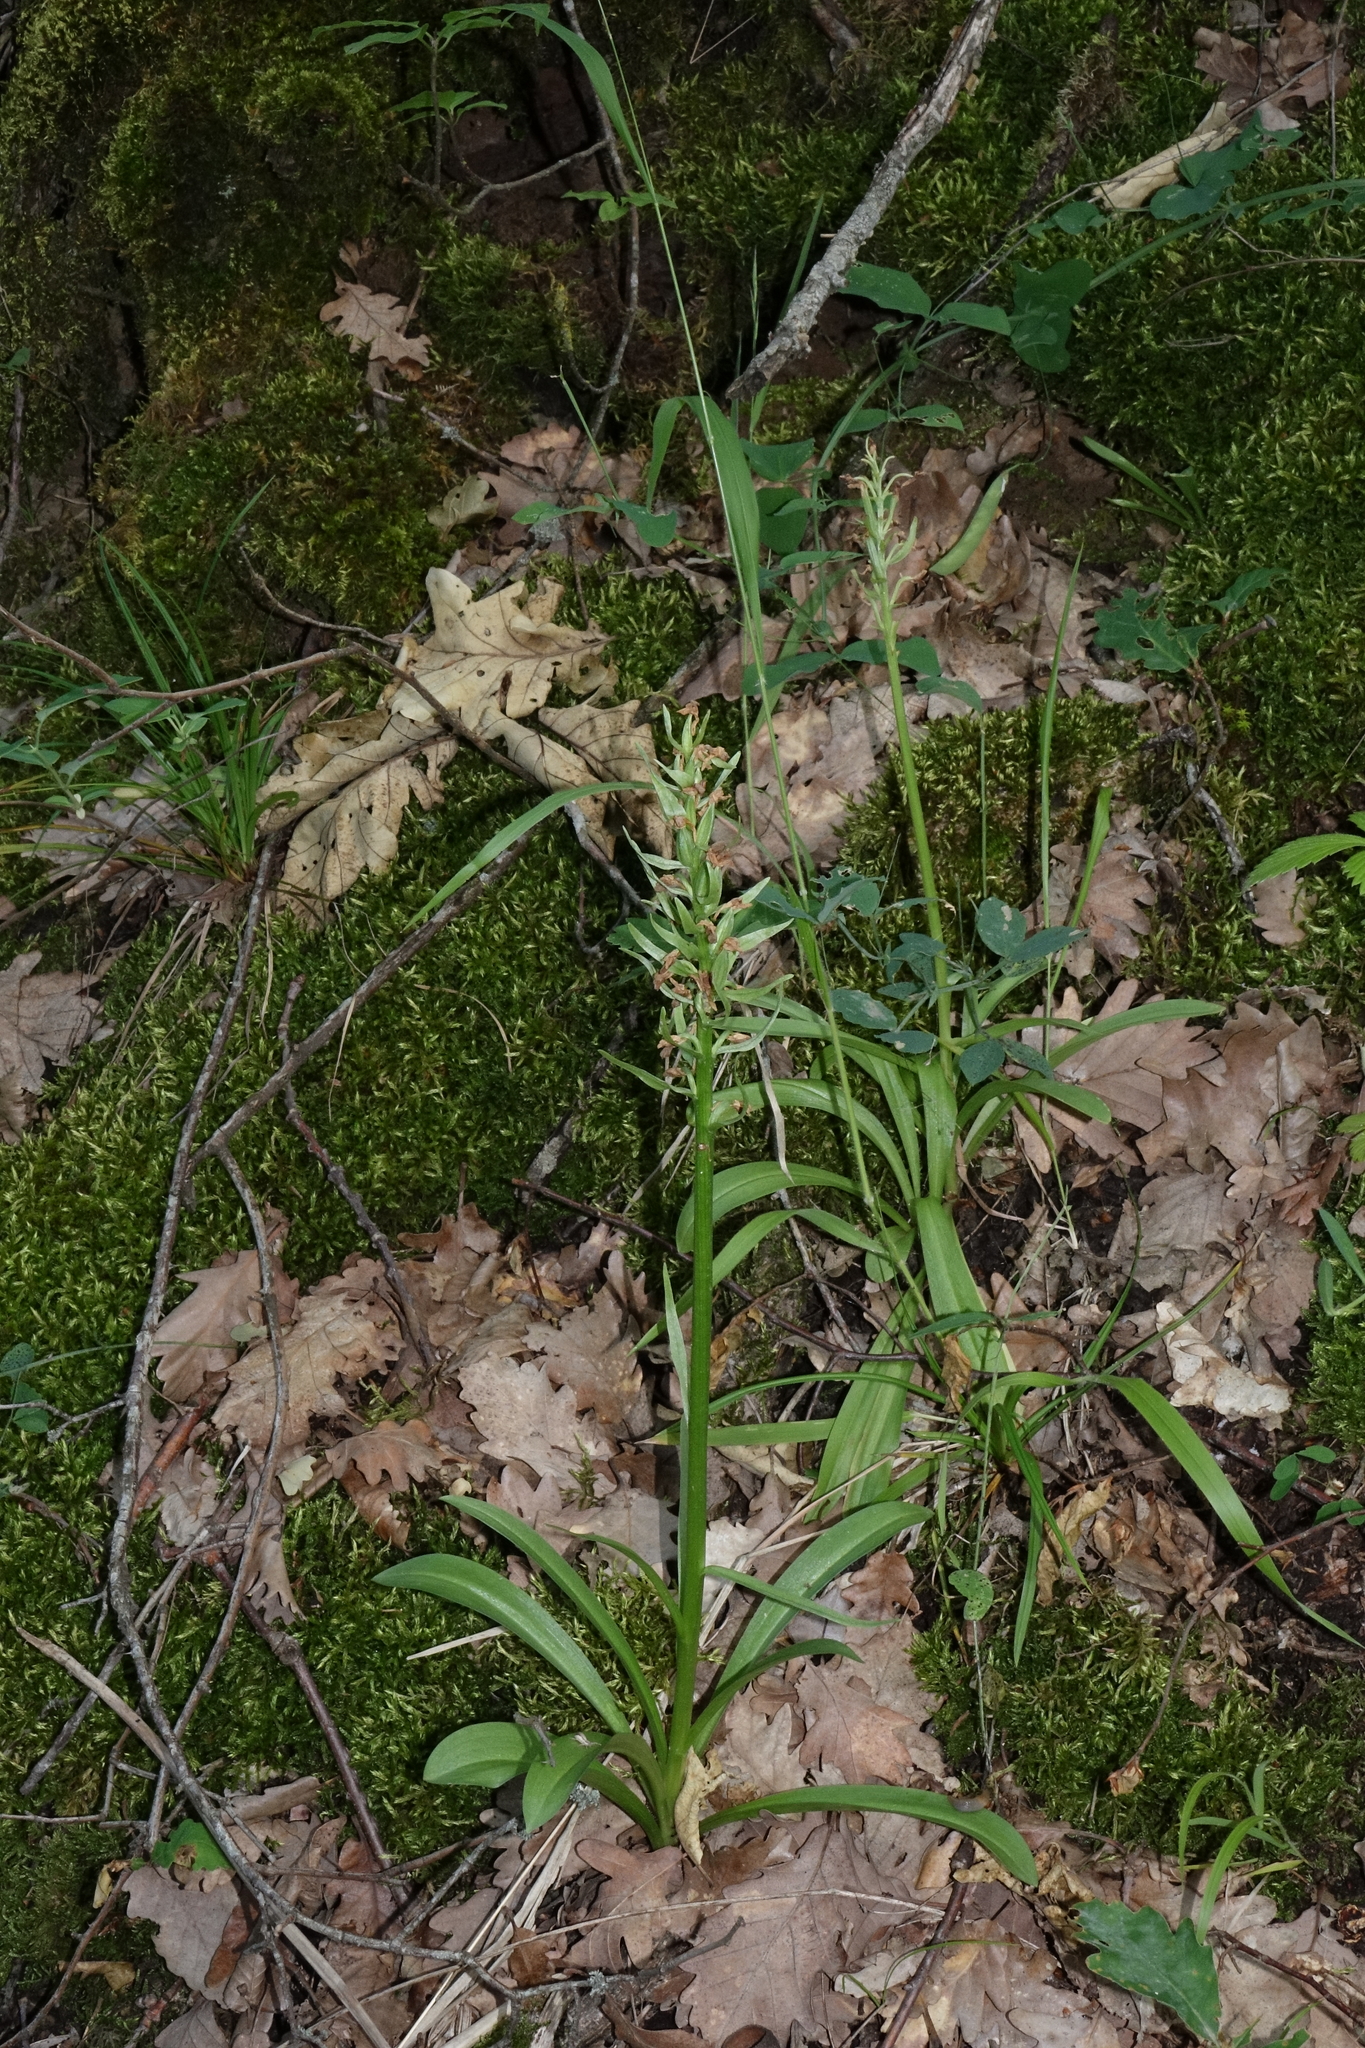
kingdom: Plantae
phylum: Tracheophyta
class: Liliopsida
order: Asparagales
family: Orchidaceae
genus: Dactylorhiza
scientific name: Dactylorhiza romana
